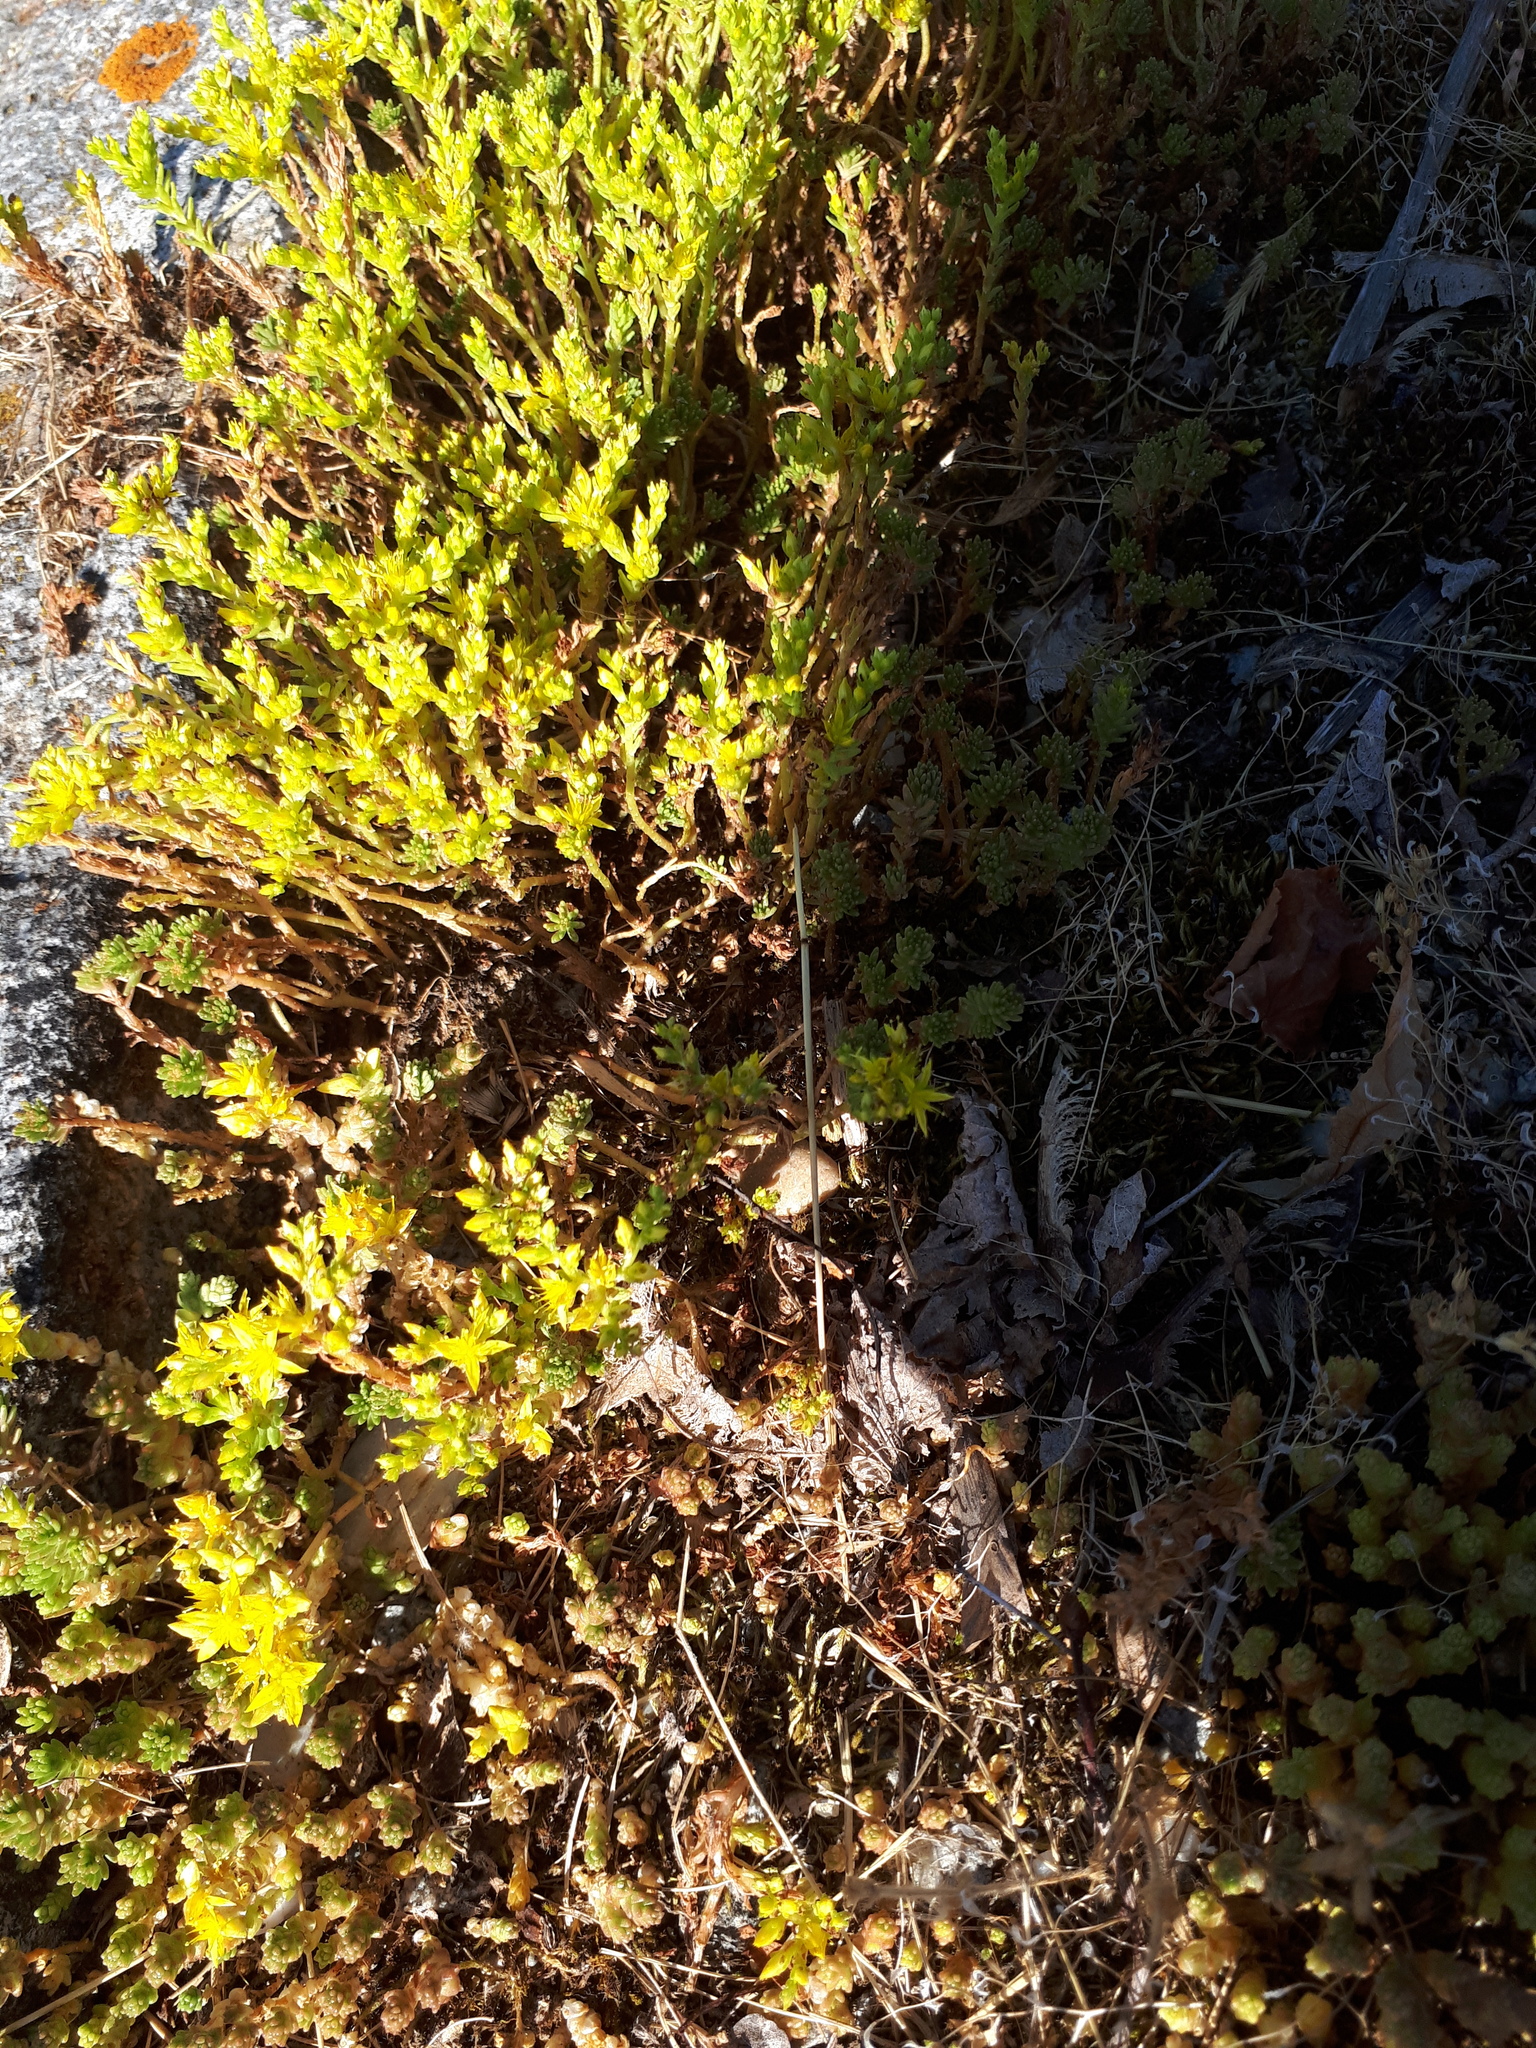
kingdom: Plantae
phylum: Tracheophyta
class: Magnoliopsida
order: Saxifragales
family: Crassulaceae
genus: Sedum
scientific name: Sedum acre
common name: Biting stonecrop
